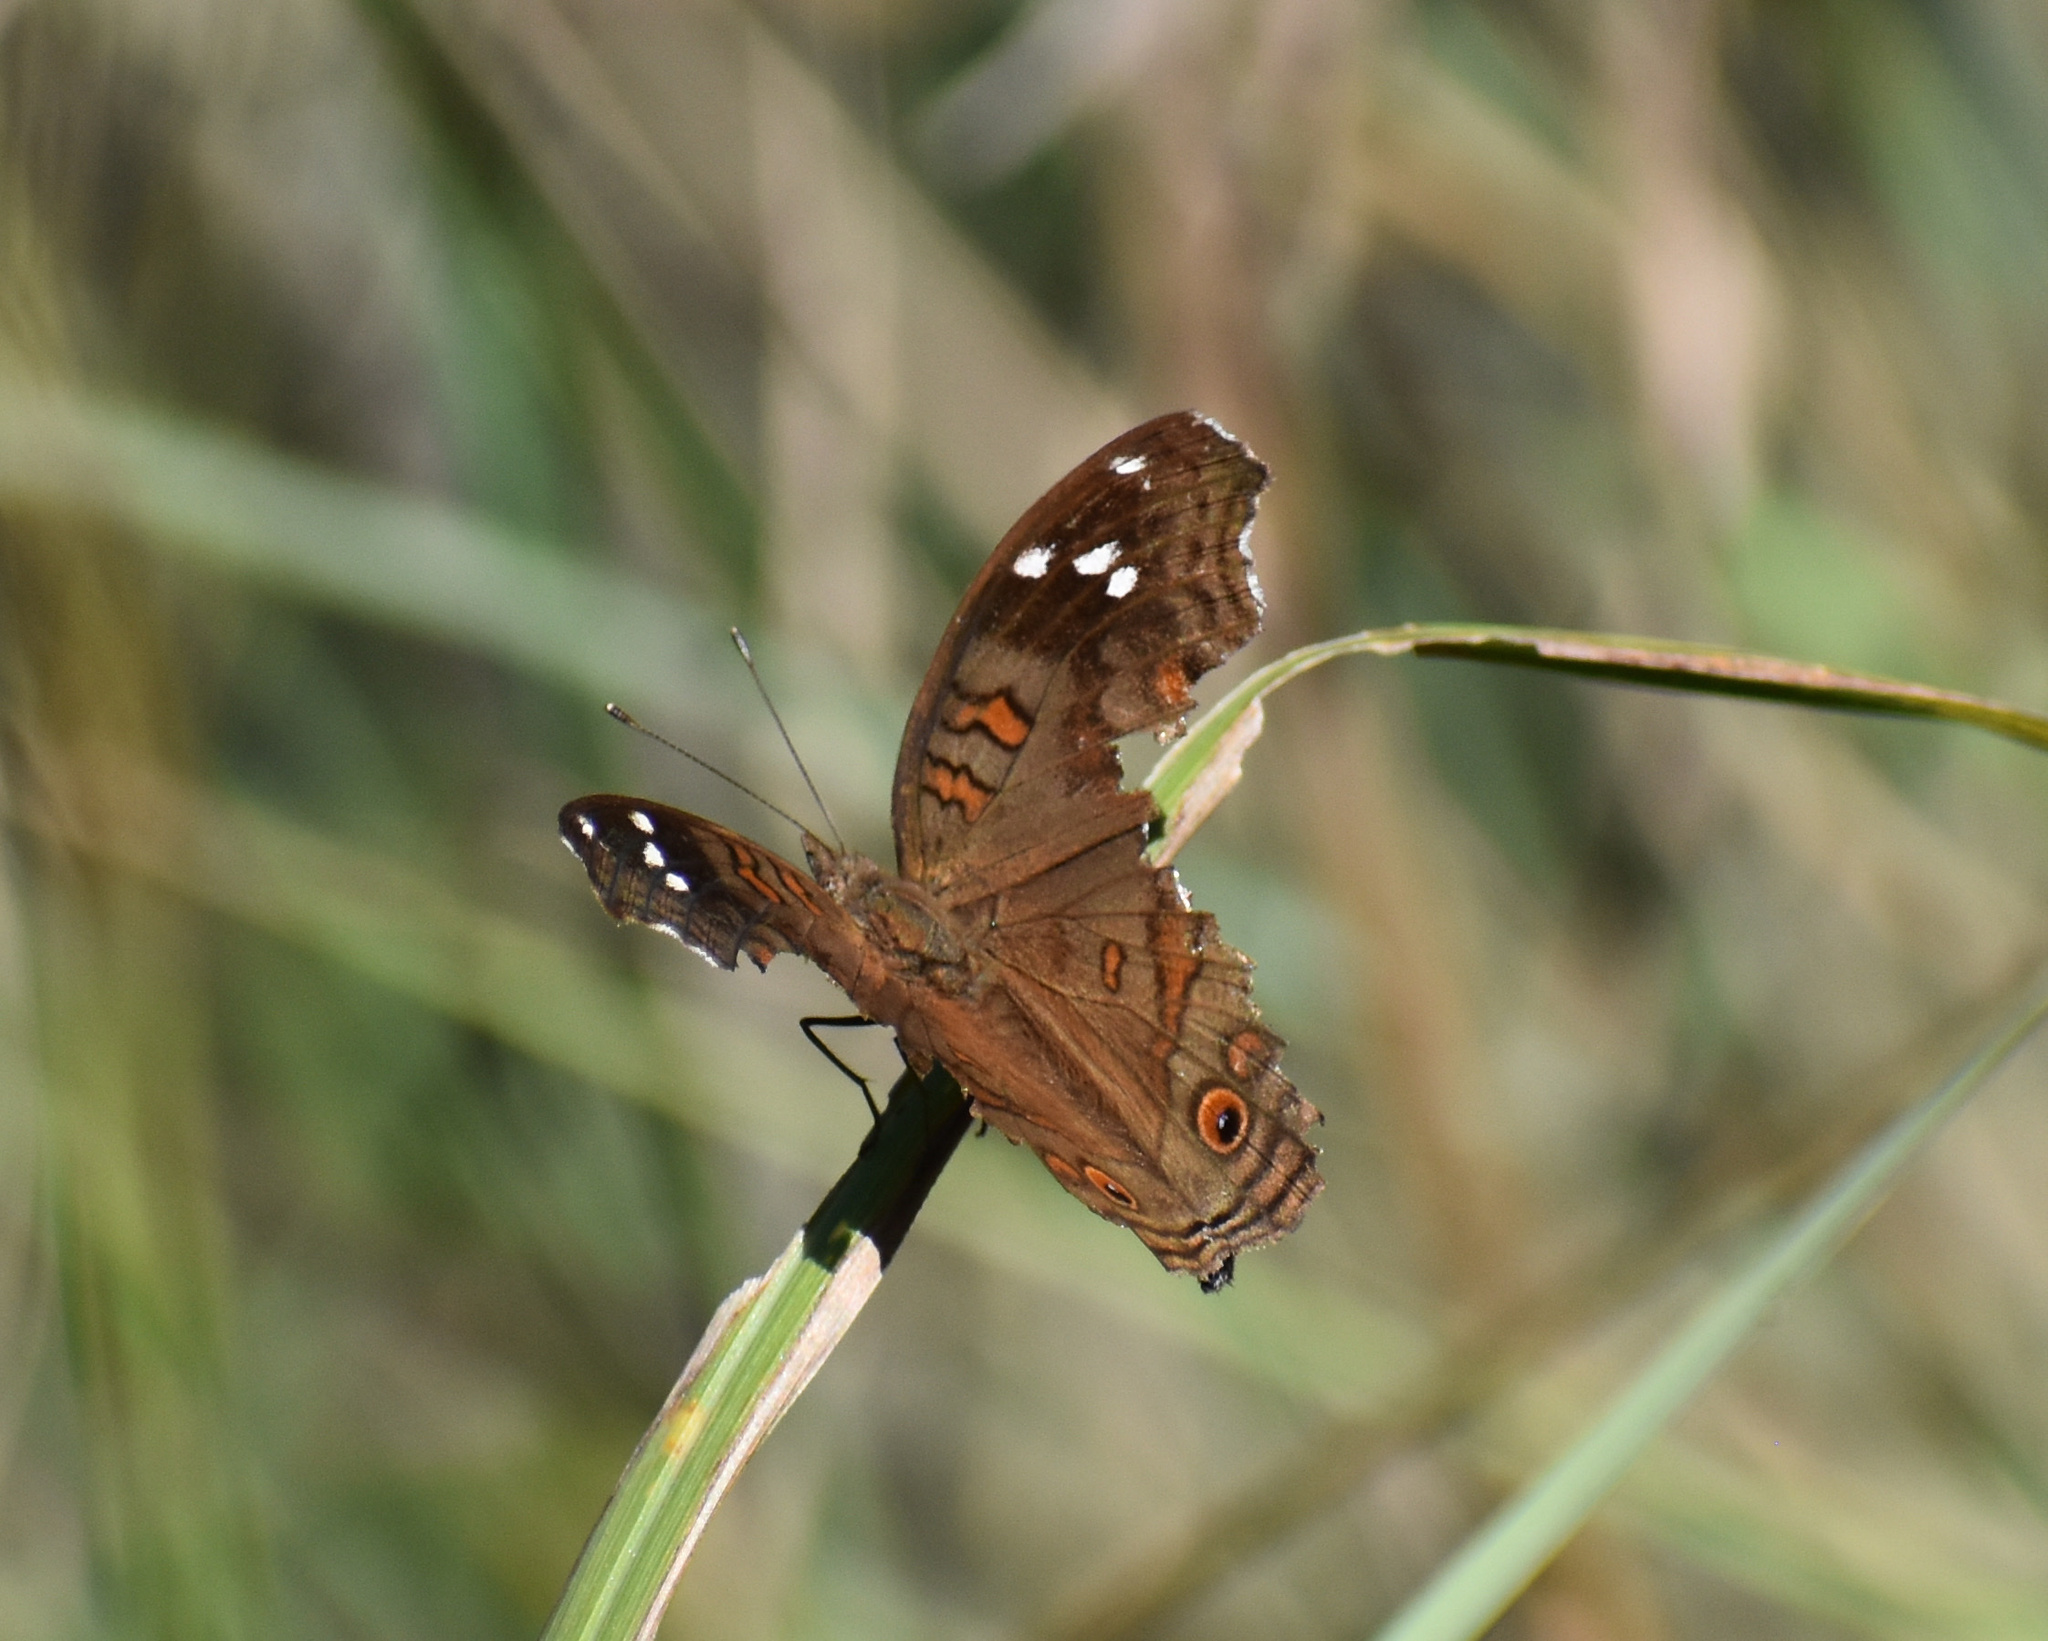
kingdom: Animalia
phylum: Arthropoda
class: Insecta
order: Lepidoptera
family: Nymphalidae
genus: Junonia
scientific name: Junonia natalica
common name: Brown pansy
